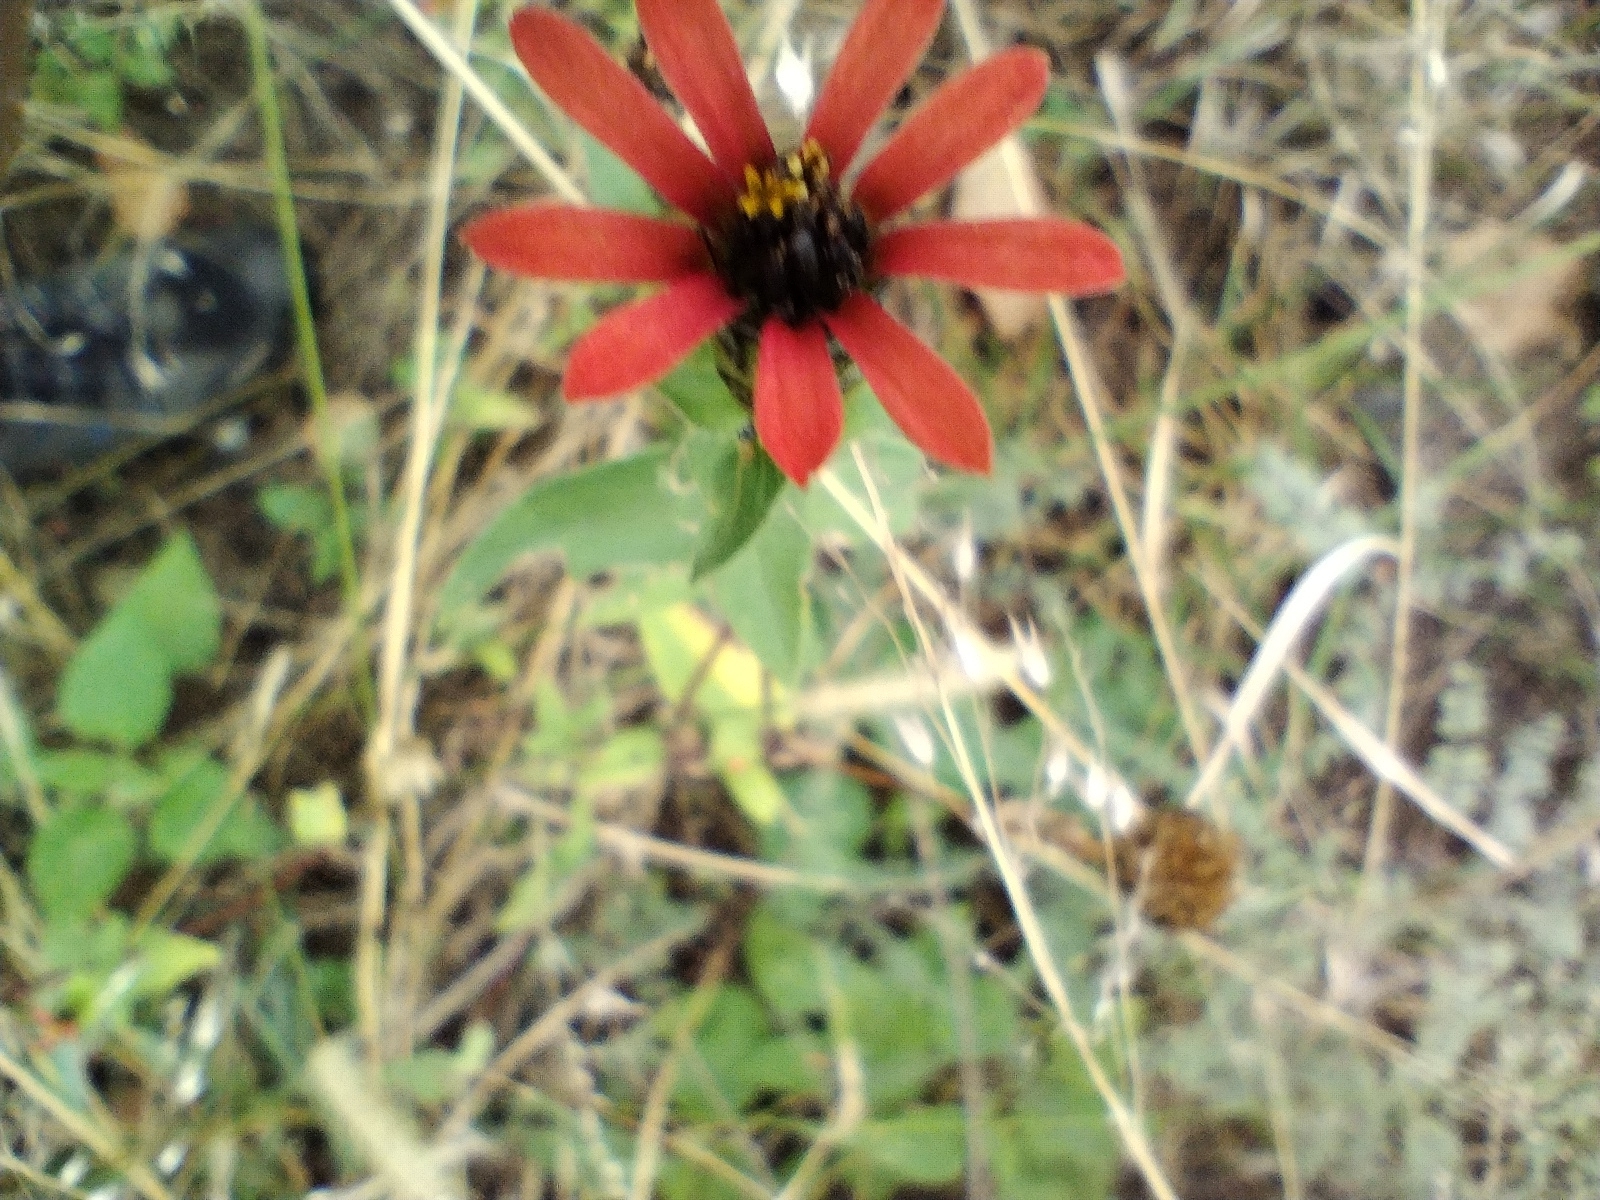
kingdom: Plantae
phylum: Tracheophyta
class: Magnoliopsida
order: Asterales
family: Asteraceae
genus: Zinnia
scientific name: Zinnia peruviana
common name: Peruvian zinnia
